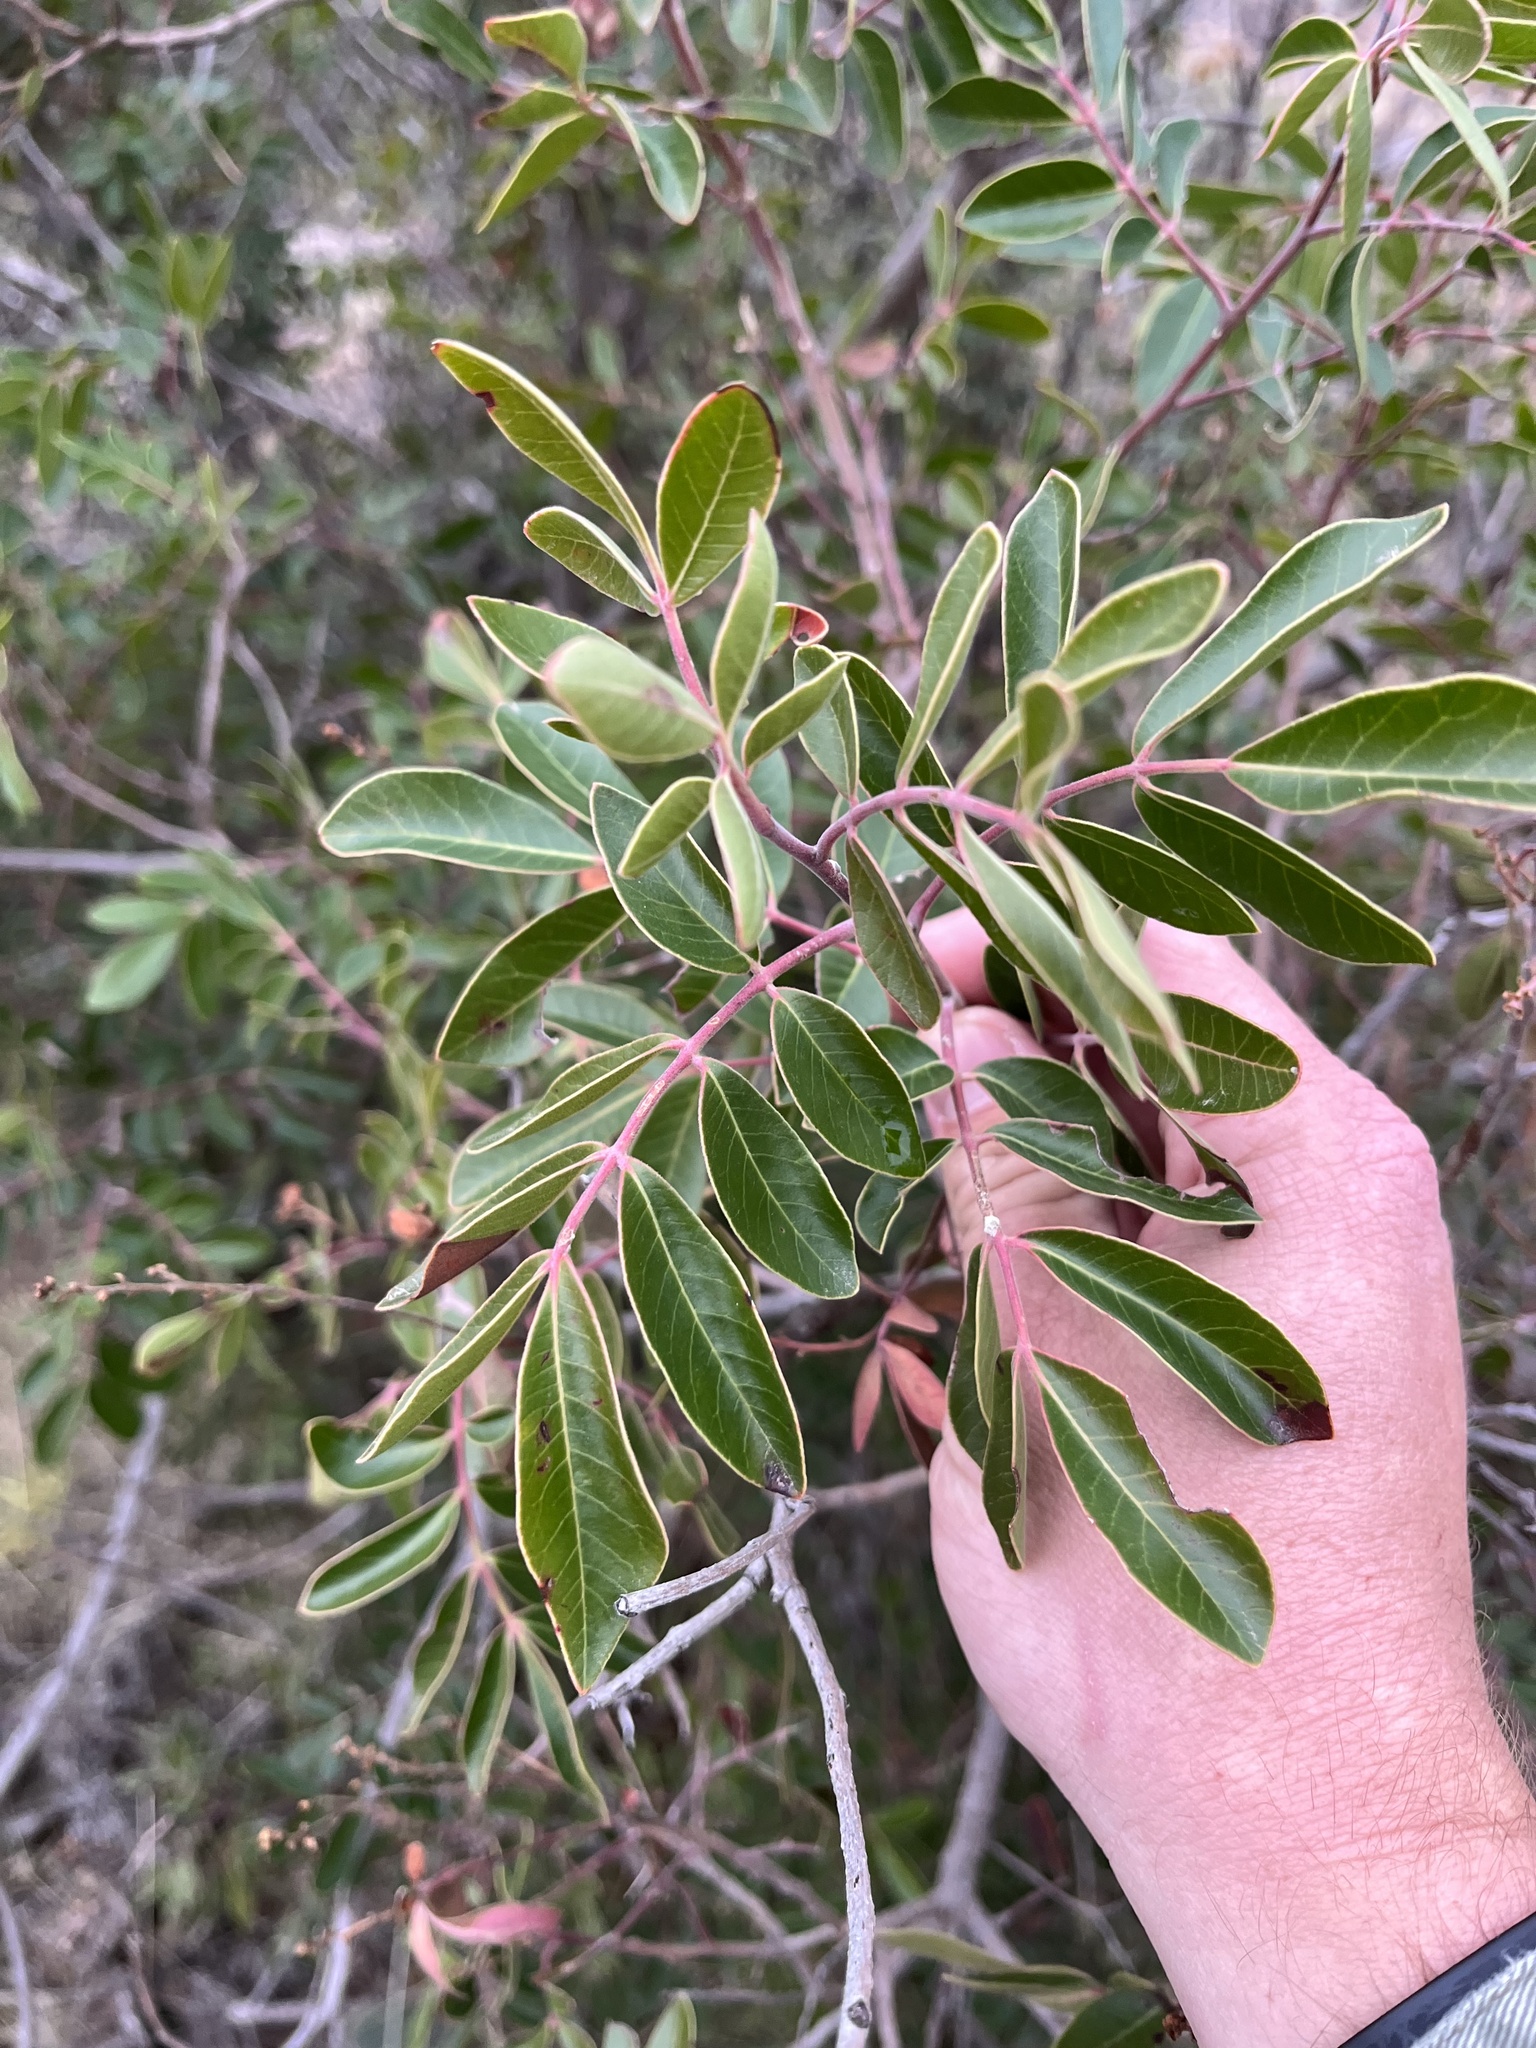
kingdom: Plantae
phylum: Tracheophyta
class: Magnoliopsida
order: Sapindales
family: Anacardiaceae
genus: Rhus
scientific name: Rhus virens
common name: Evergreen sumac
